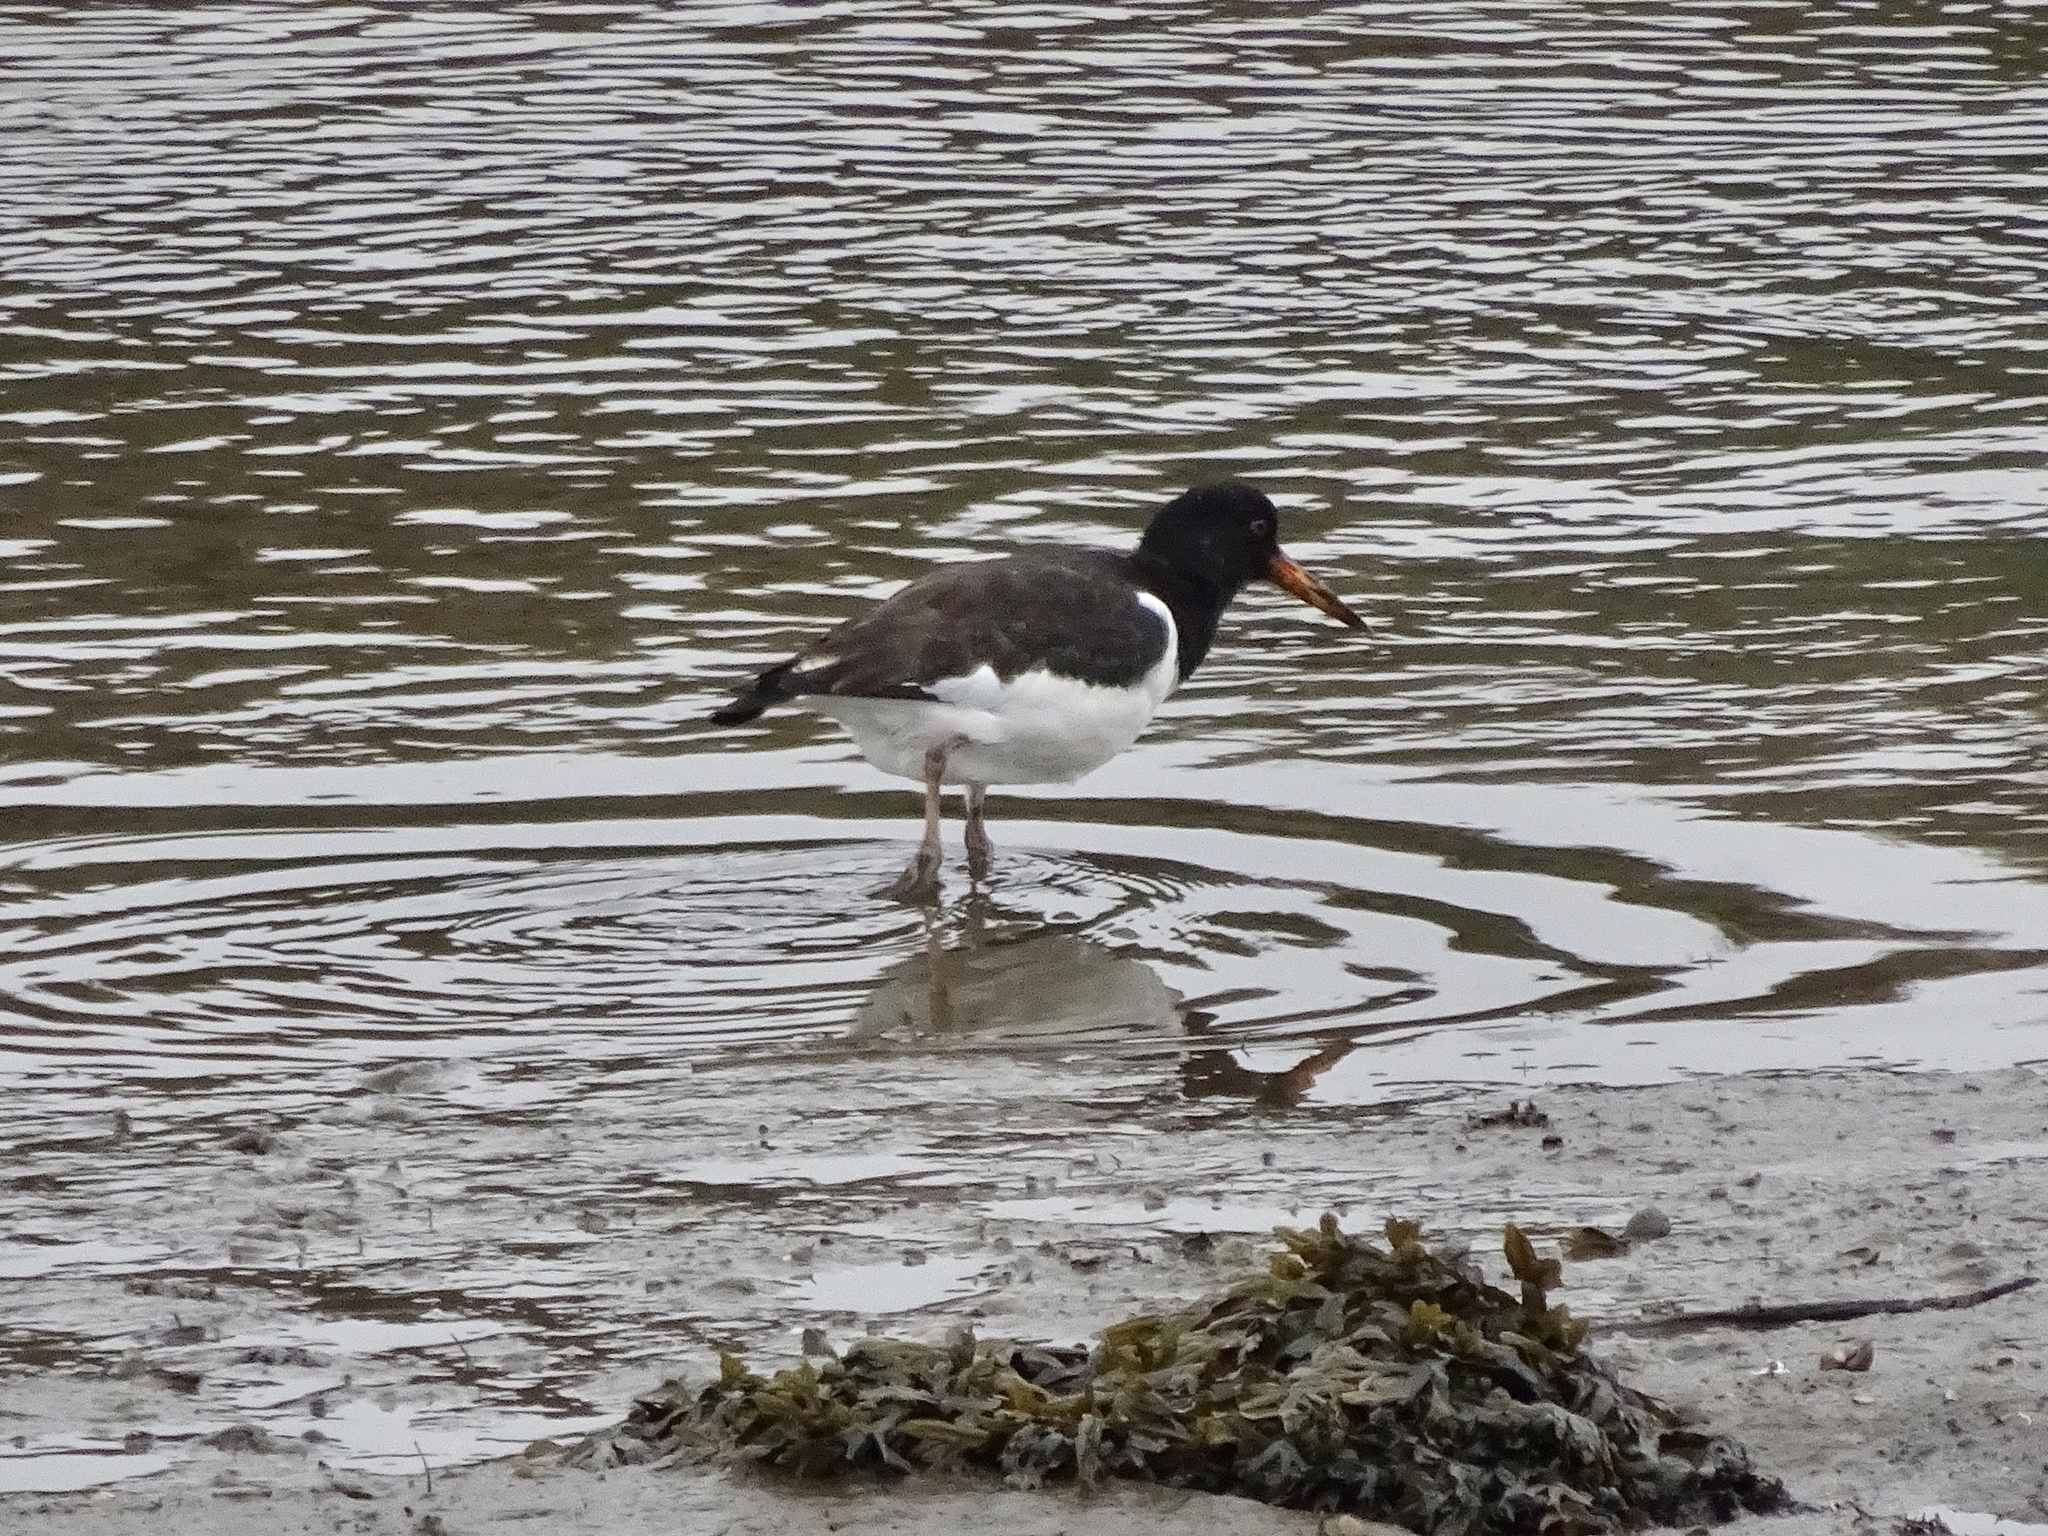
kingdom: Animalia
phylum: Chordata
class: Aves
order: Charadriiformes
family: Haematopodidae
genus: Haematopus
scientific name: Haematopus ostralegus
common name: Eurasian oystercatcher
